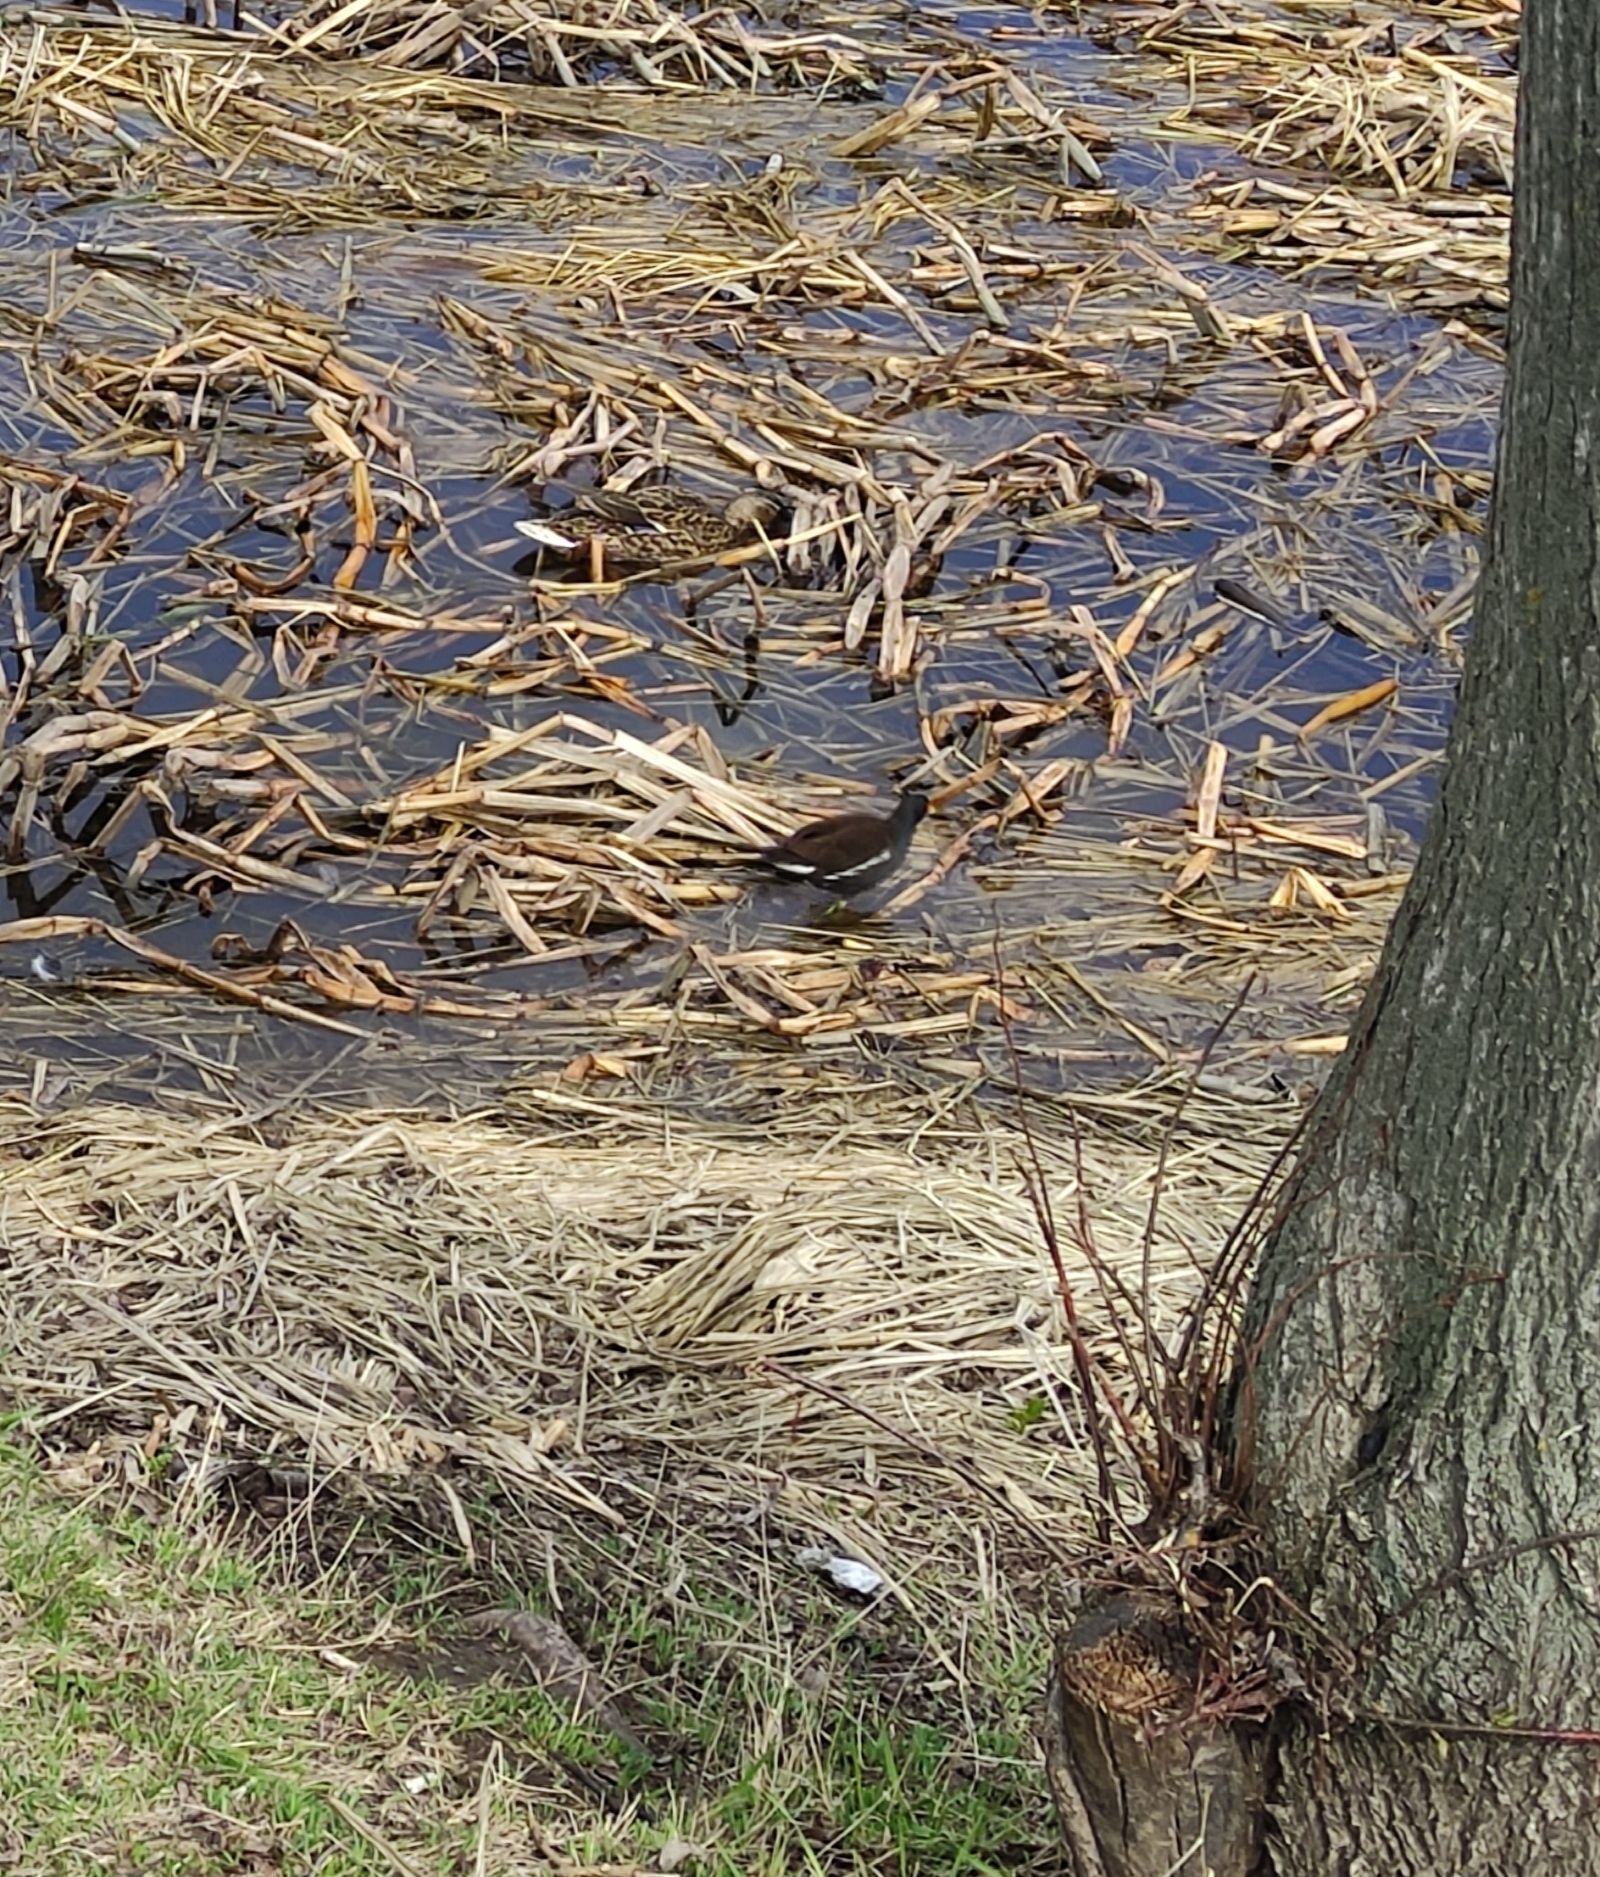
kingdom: Animalia
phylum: Chordata
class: Aves
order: Gruiformes
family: Rallidae
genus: Gallinula
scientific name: Gallinula chloropus
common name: Common moorhen
